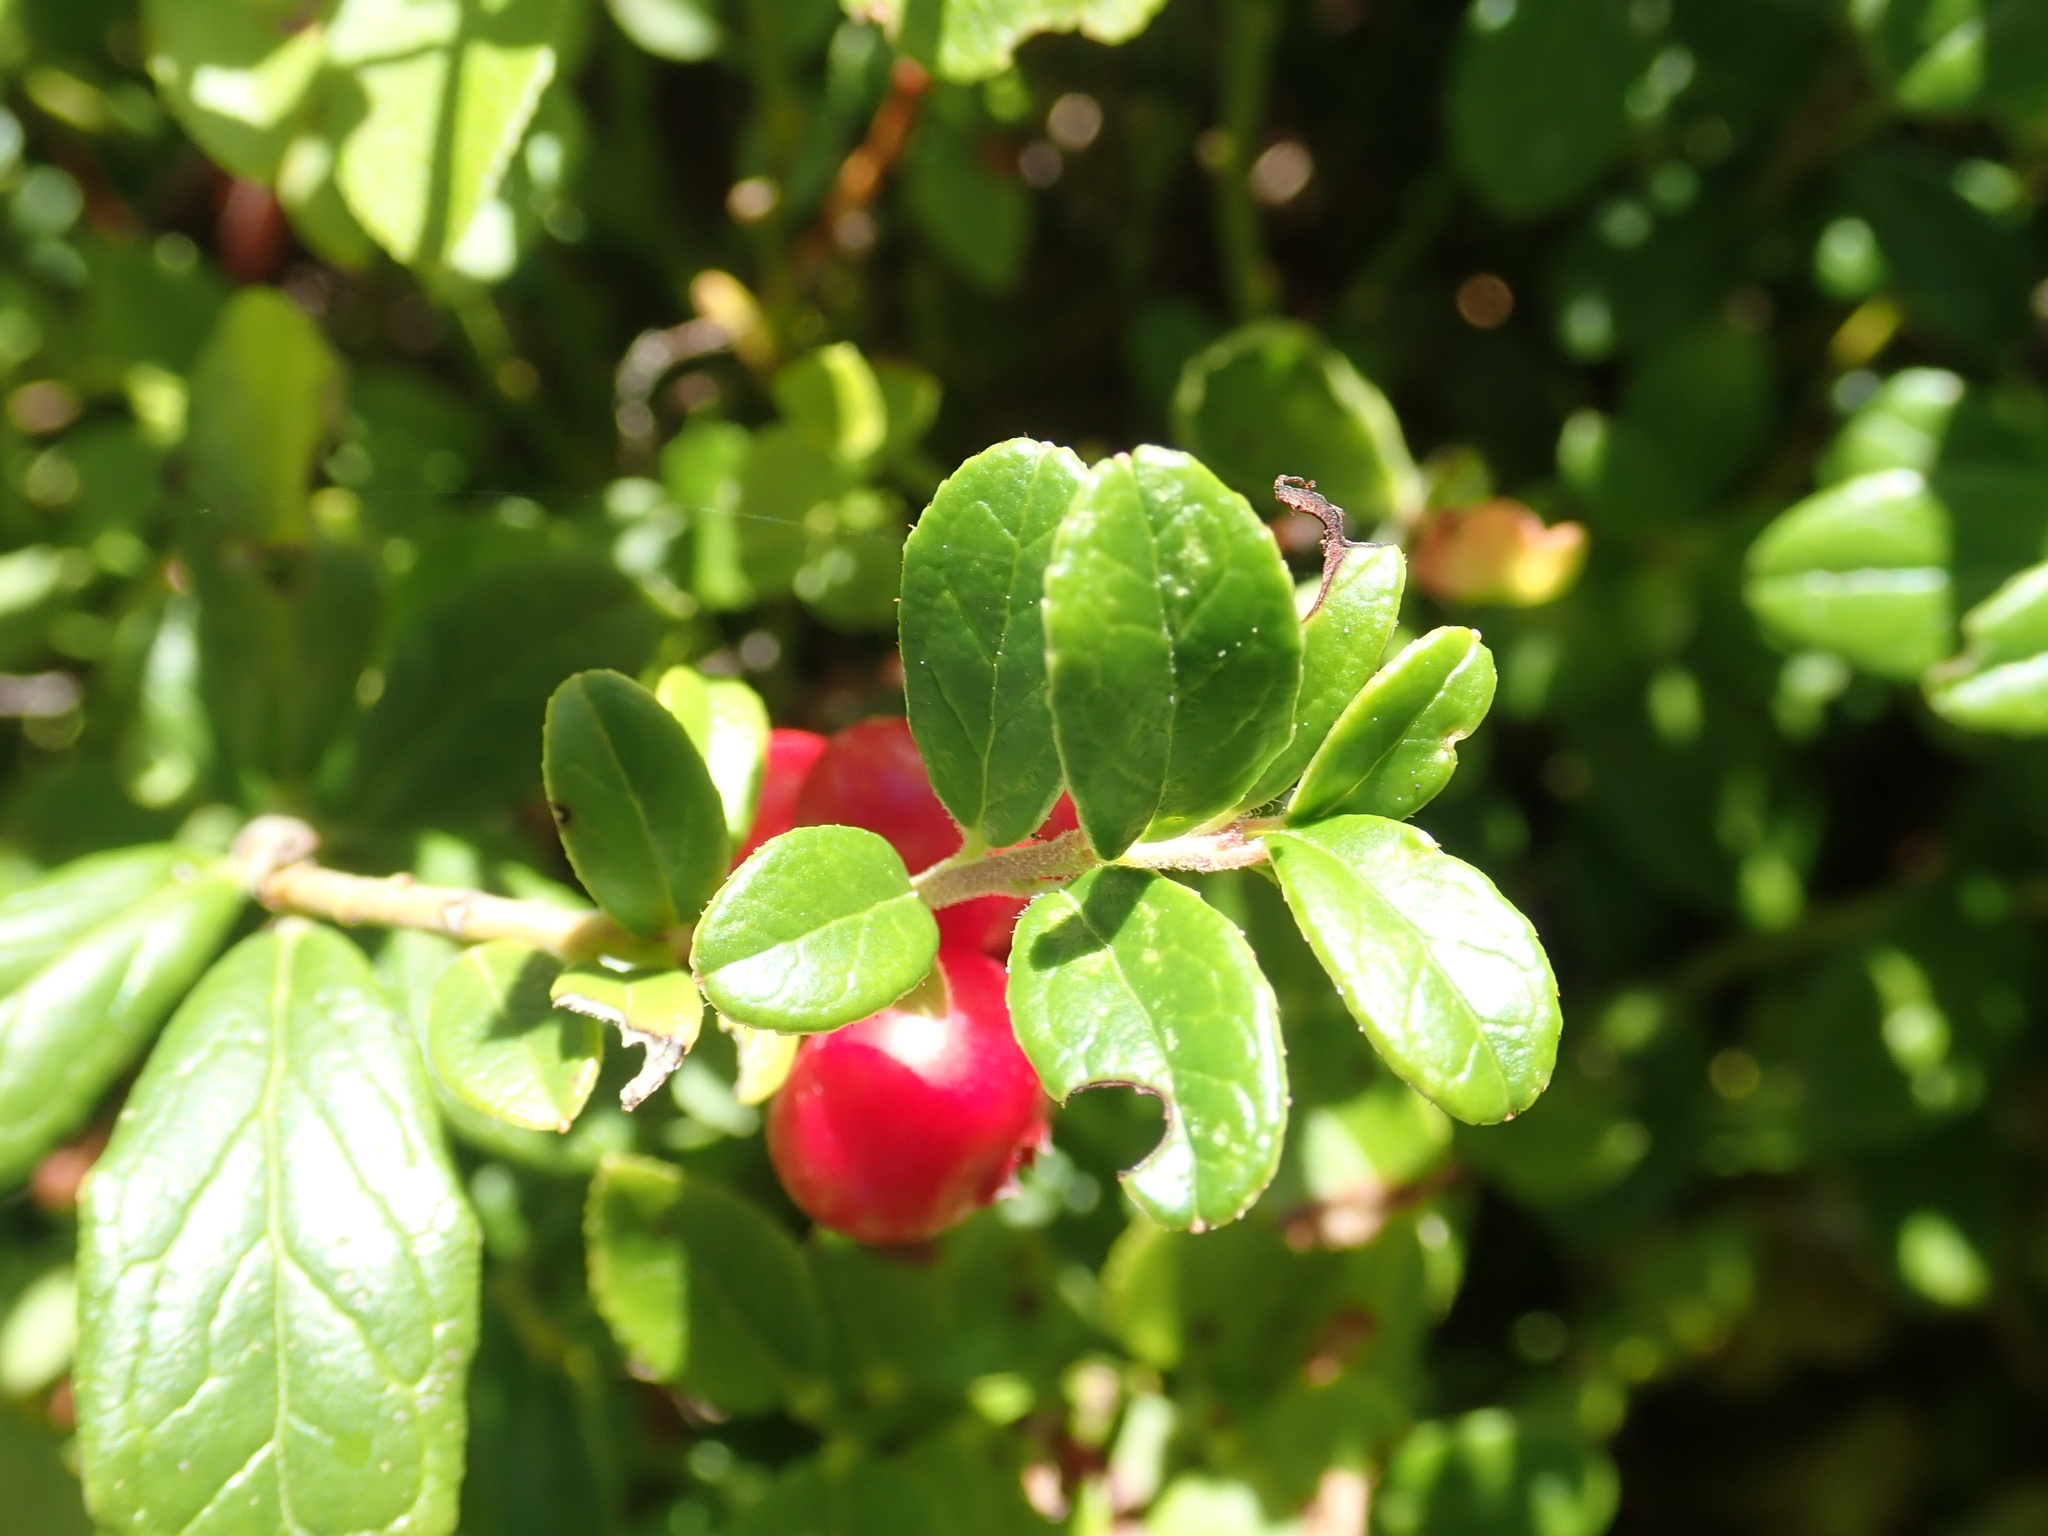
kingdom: Plantae
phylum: Tracheophyta
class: Magnoliopsida
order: Ericales
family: Ericaceae
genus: Vaccinium
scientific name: Vaccinium vitis-idaea
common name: Cowberry
